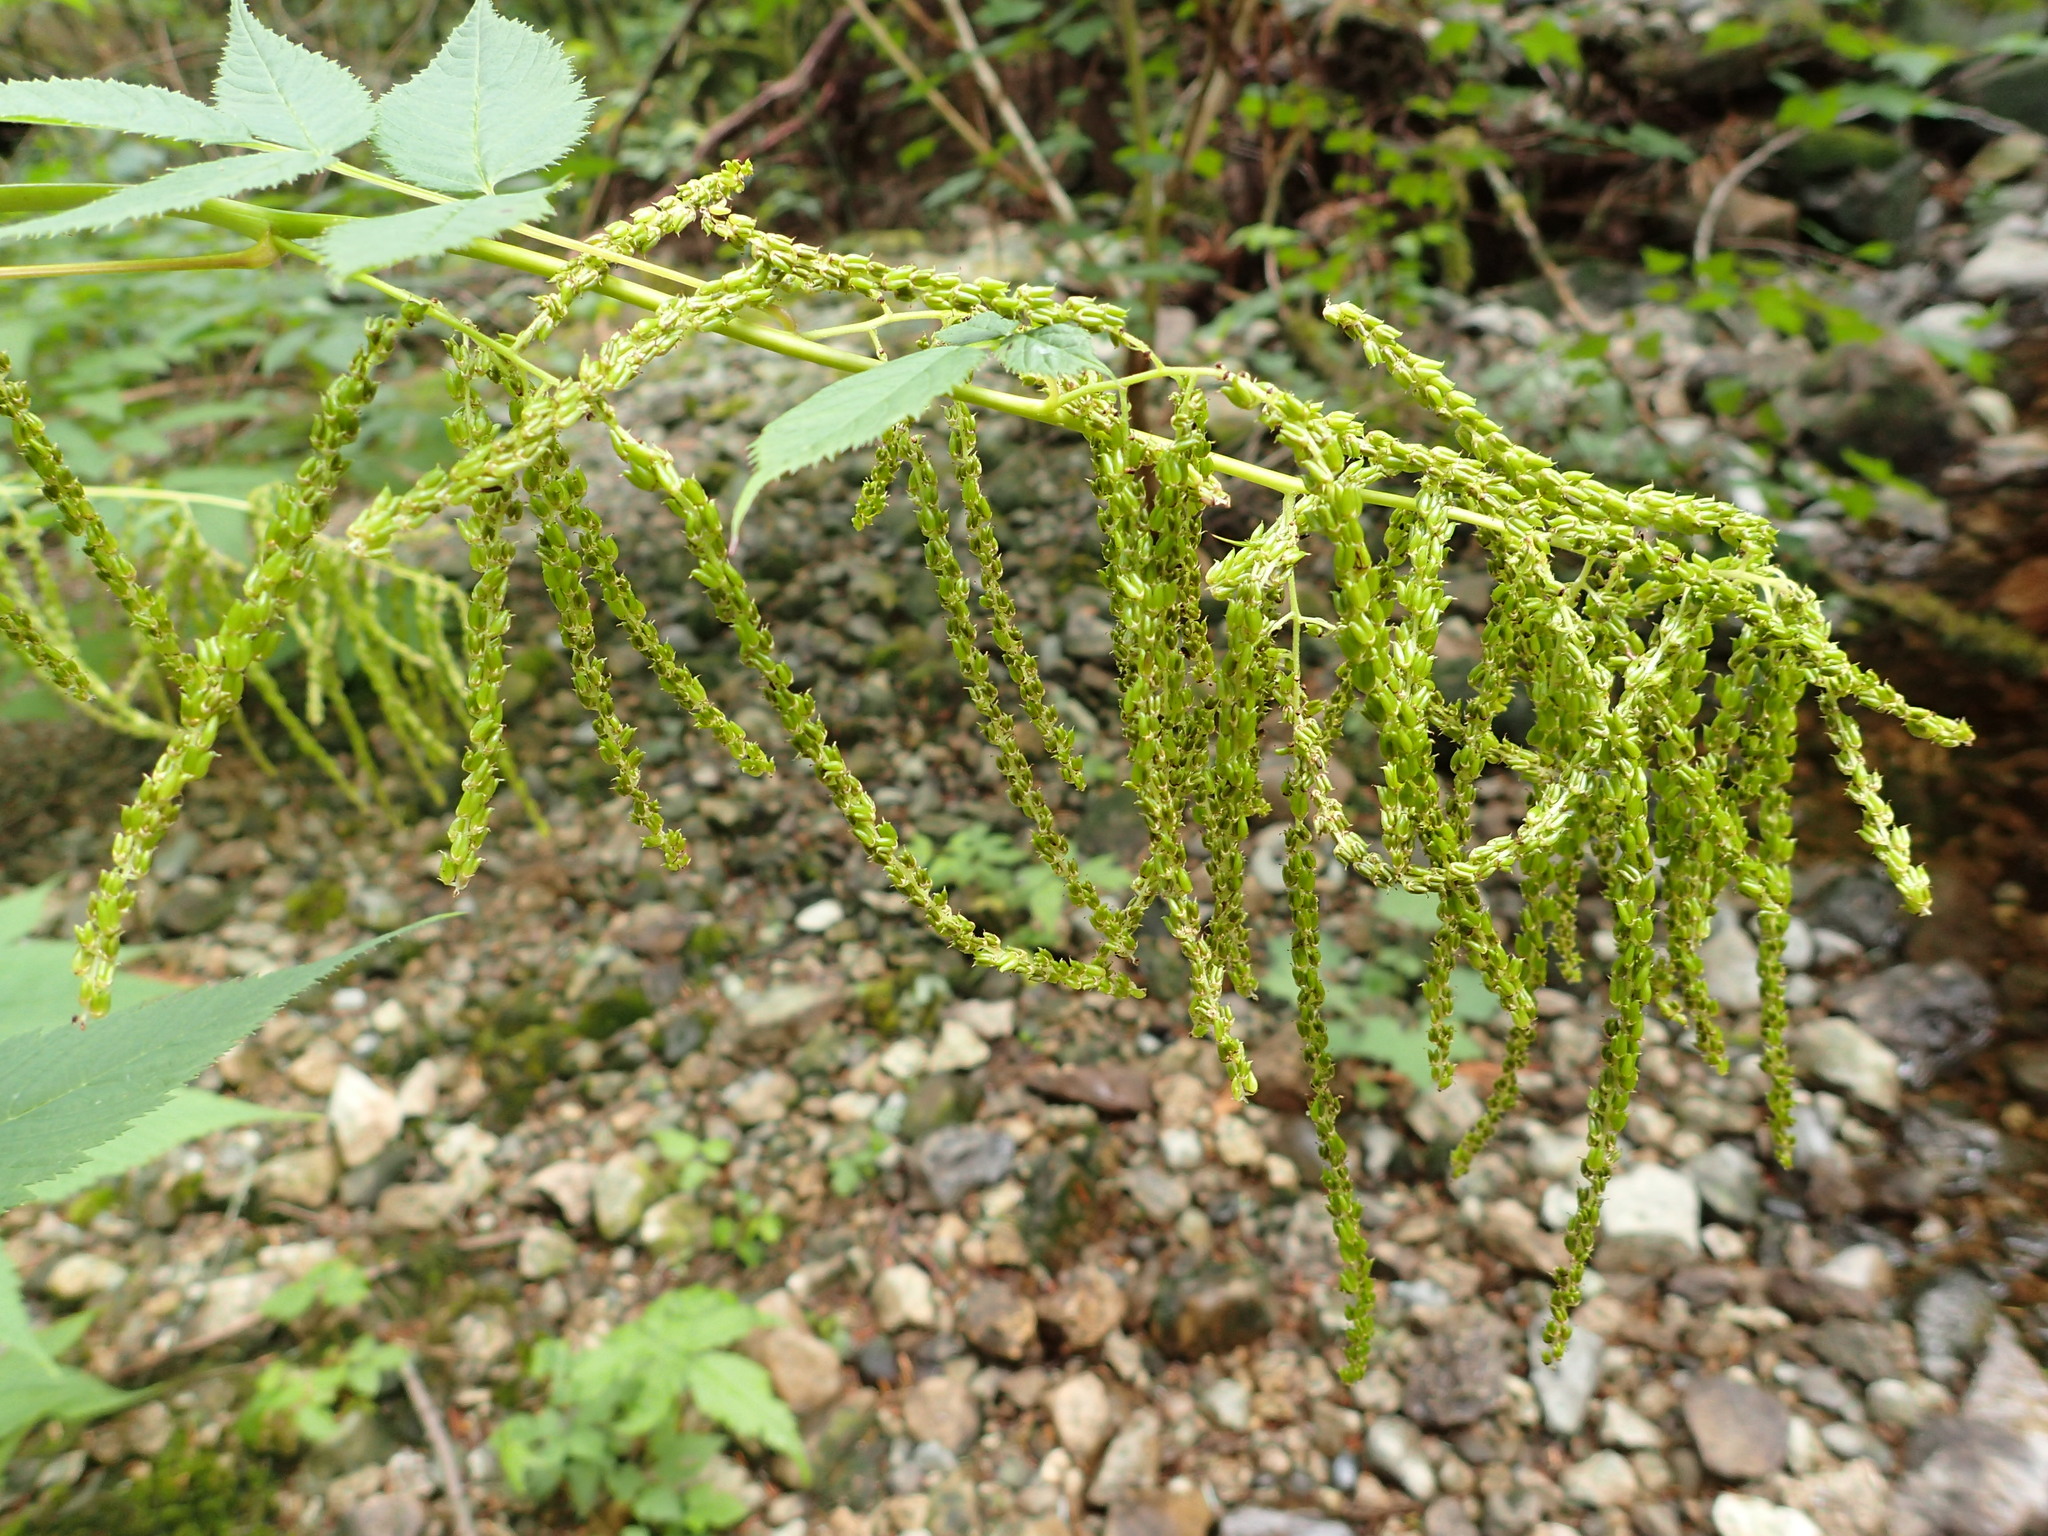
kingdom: Plantae
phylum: Tracheophyta
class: Magnoliopsida
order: Rosales
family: Rosaceae
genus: Aruncus
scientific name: Aruncus dioicus
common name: Buck's-beard
